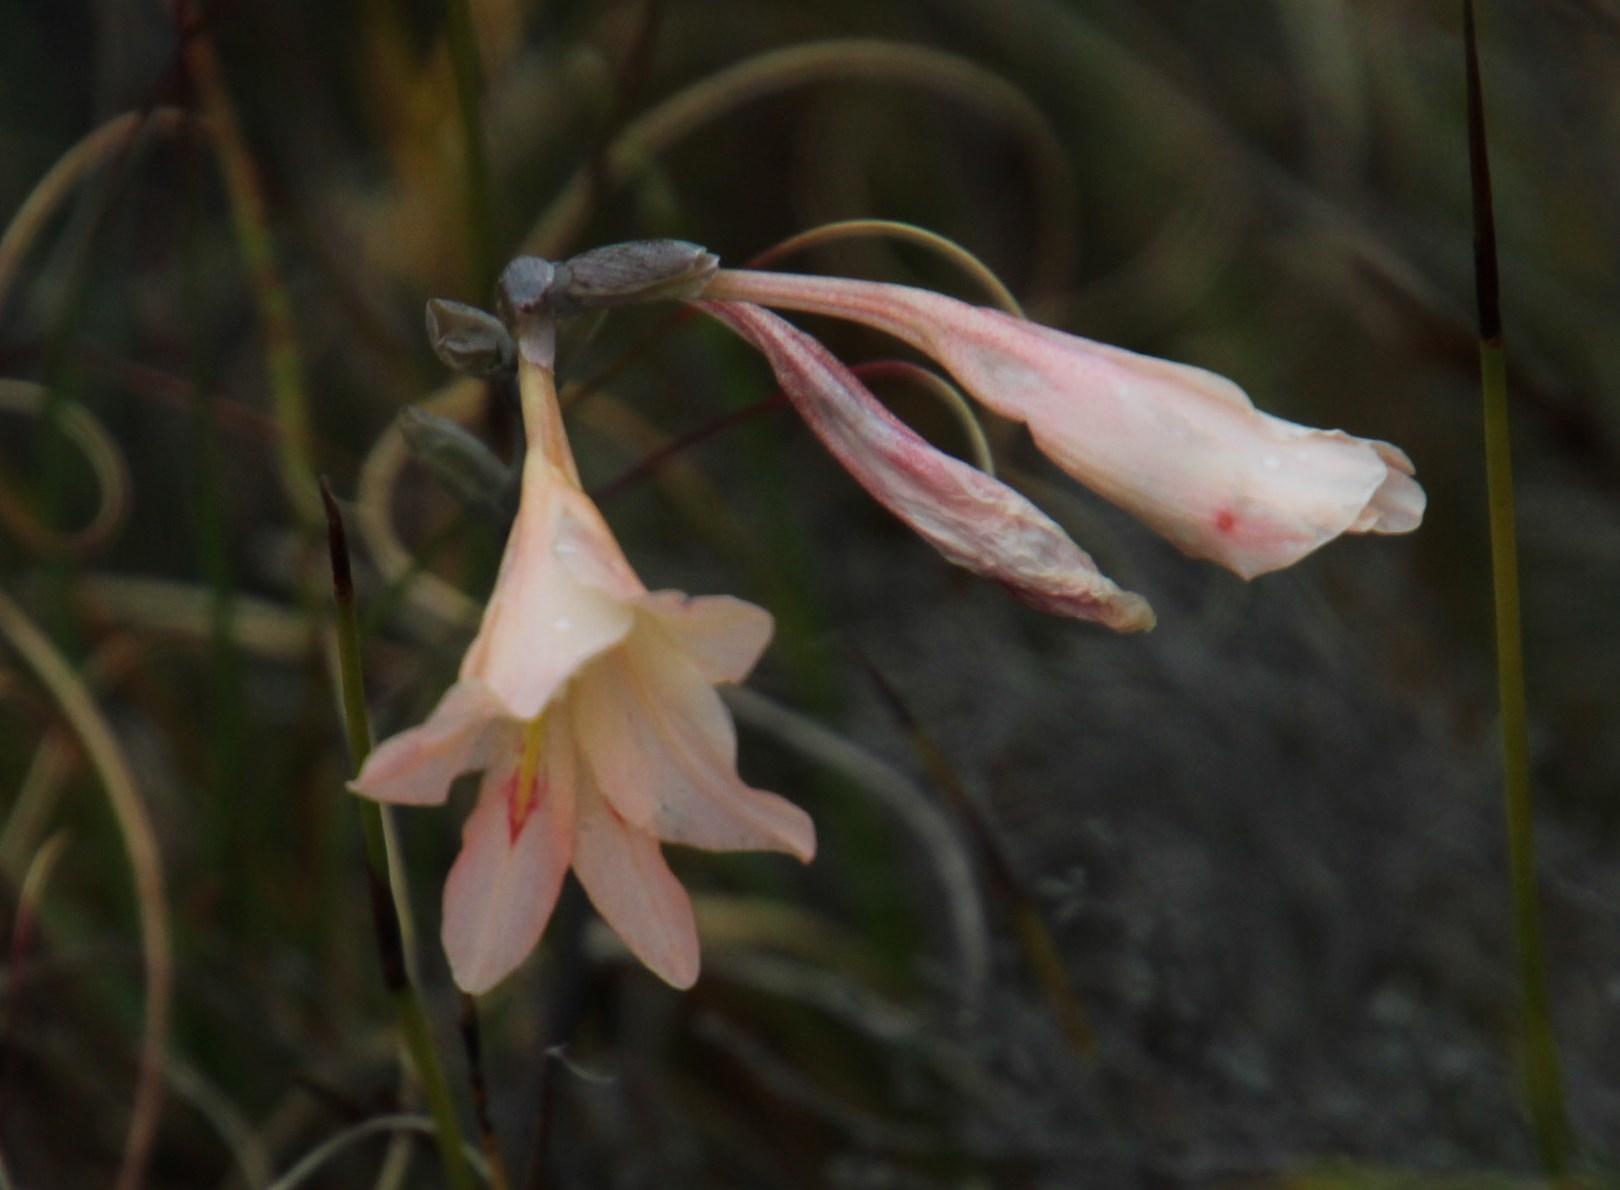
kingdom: Plantae
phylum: Tracheophyta
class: Liliopsida
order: Asparagales
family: Iridaceae
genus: Gladiolus
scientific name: Gladiolus monticola
